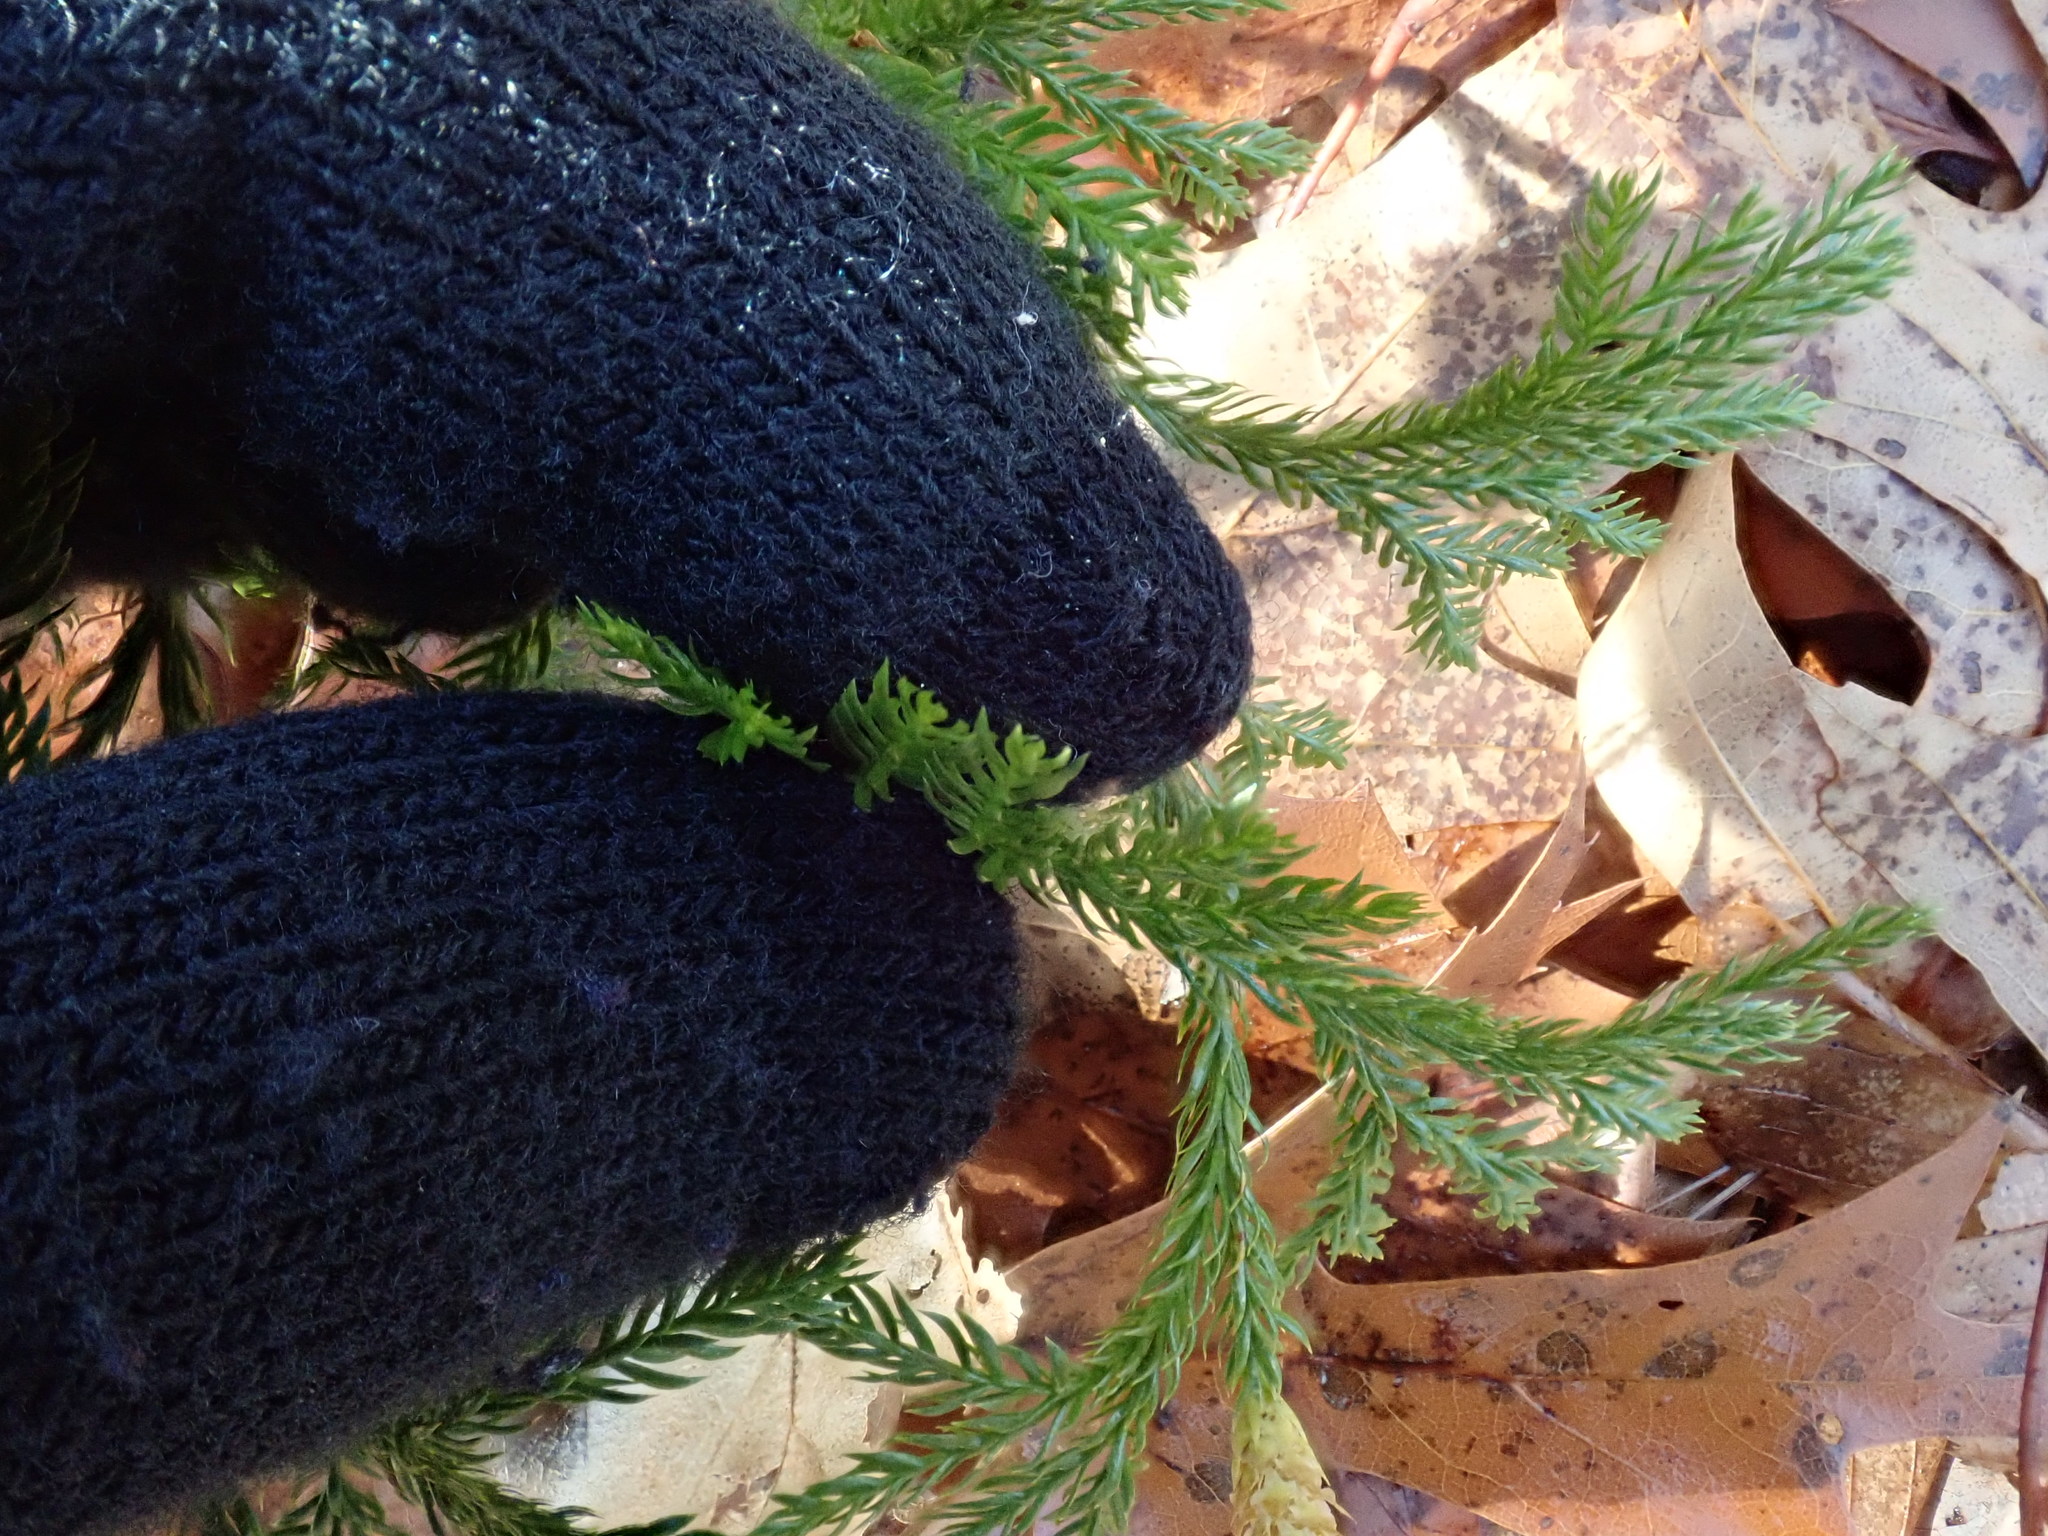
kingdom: Plantae
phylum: Tracheophyta
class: Lycopodiopsida
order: Lycopodiales
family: Lycopodiaceae
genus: Dendrolycopodium
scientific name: Dendrolycopodium obscurum
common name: Common ground-pine
